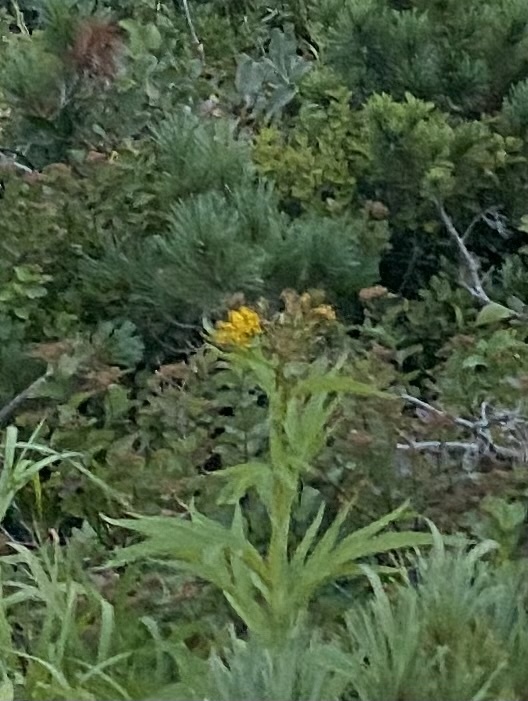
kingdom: Plantae
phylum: Tracheophyta
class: Magnoliopsida
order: Asterales
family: Asteraceae
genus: Jacobaea
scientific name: Jacobaea cannabifolia
